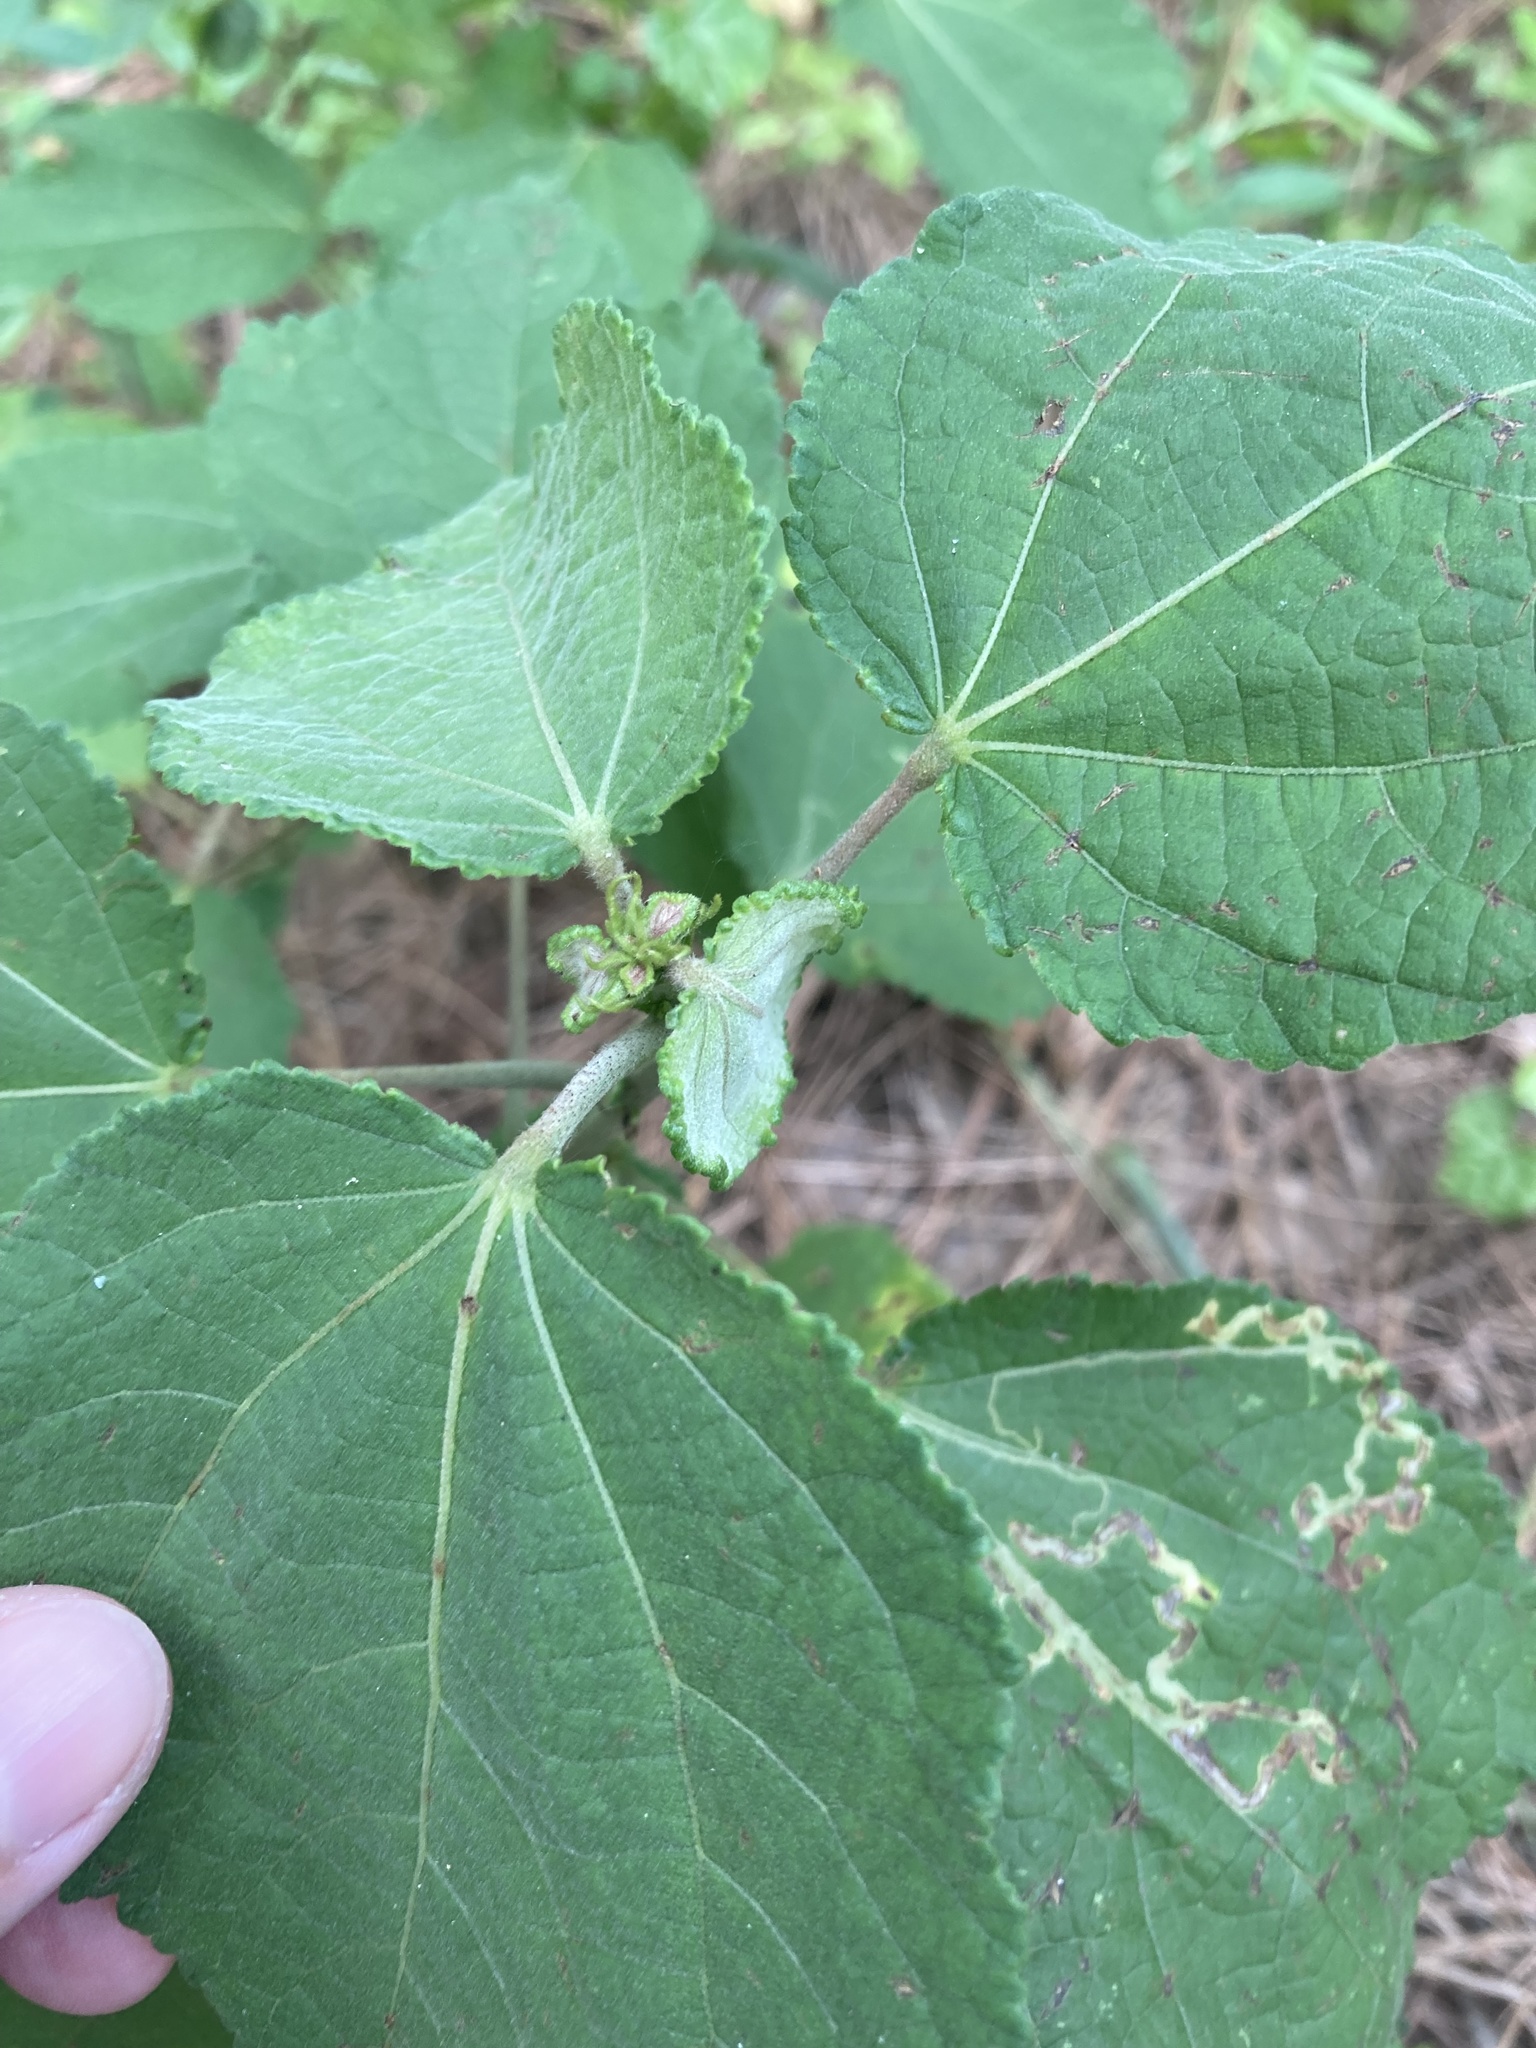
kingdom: Plantae
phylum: Tracheophyta
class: Magnoliopsida
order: Malvales
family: Malvaceae
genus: Triumfetta
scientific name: Triumfetta semitriloba
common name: Sacramento burbark
